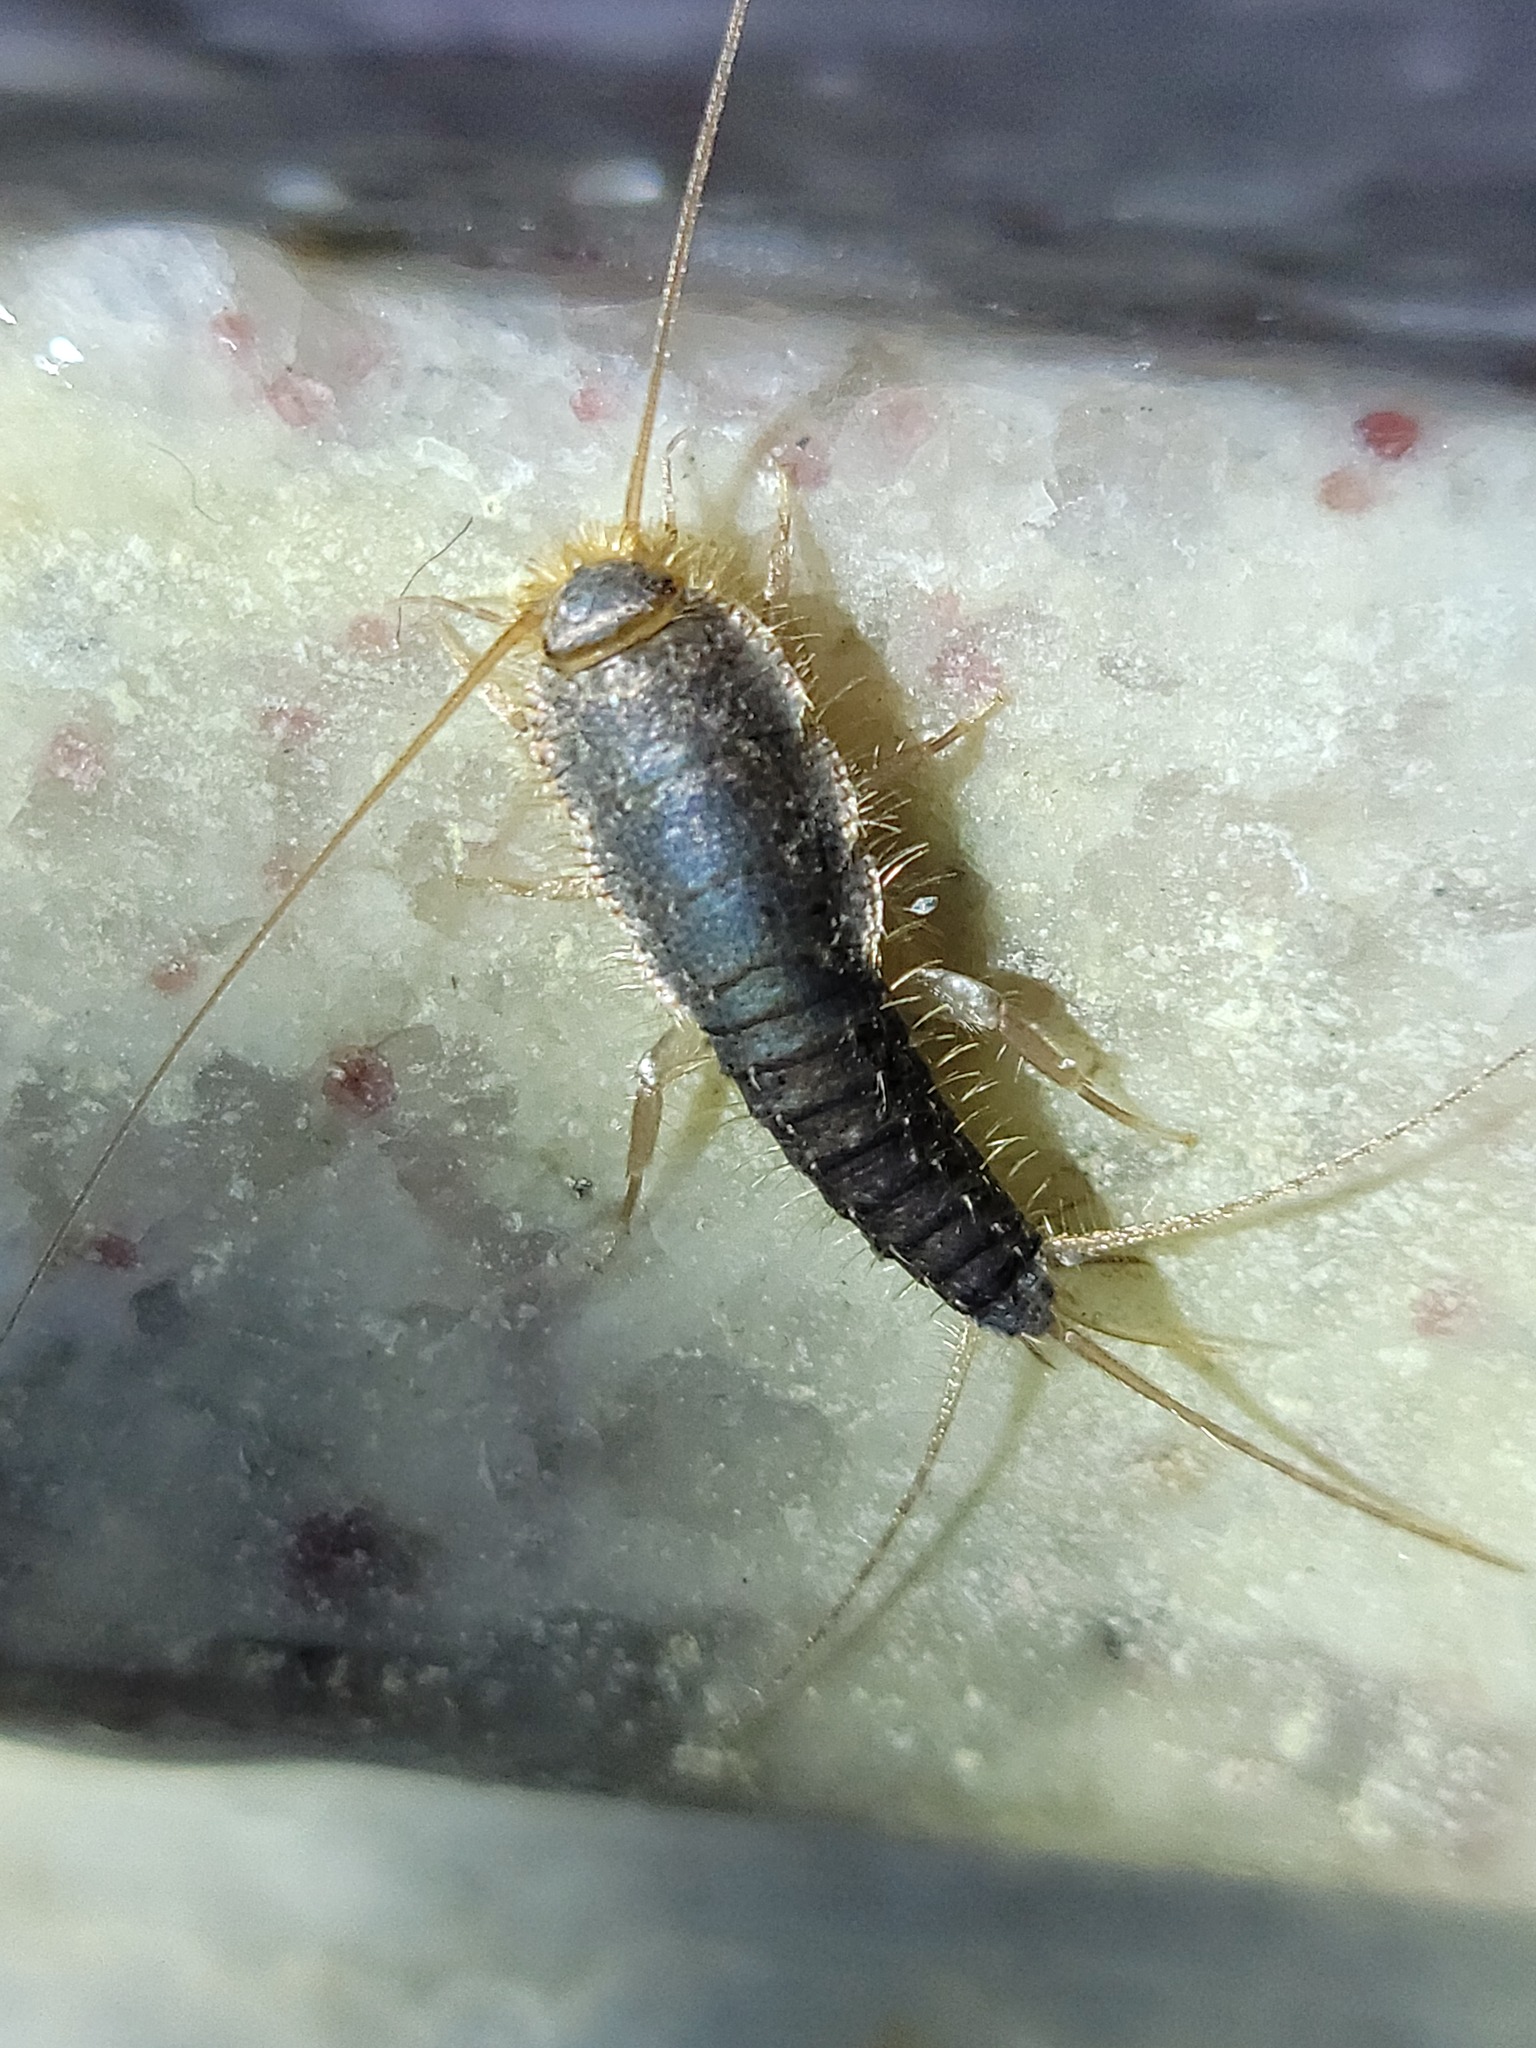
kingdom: Animalia
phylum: Arthropoda
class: Insecta
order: Zygentoma
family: Lepismatidae
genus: Ctenolepisma
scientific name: Ctenolepisma longicaudatum
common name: Silverfish
